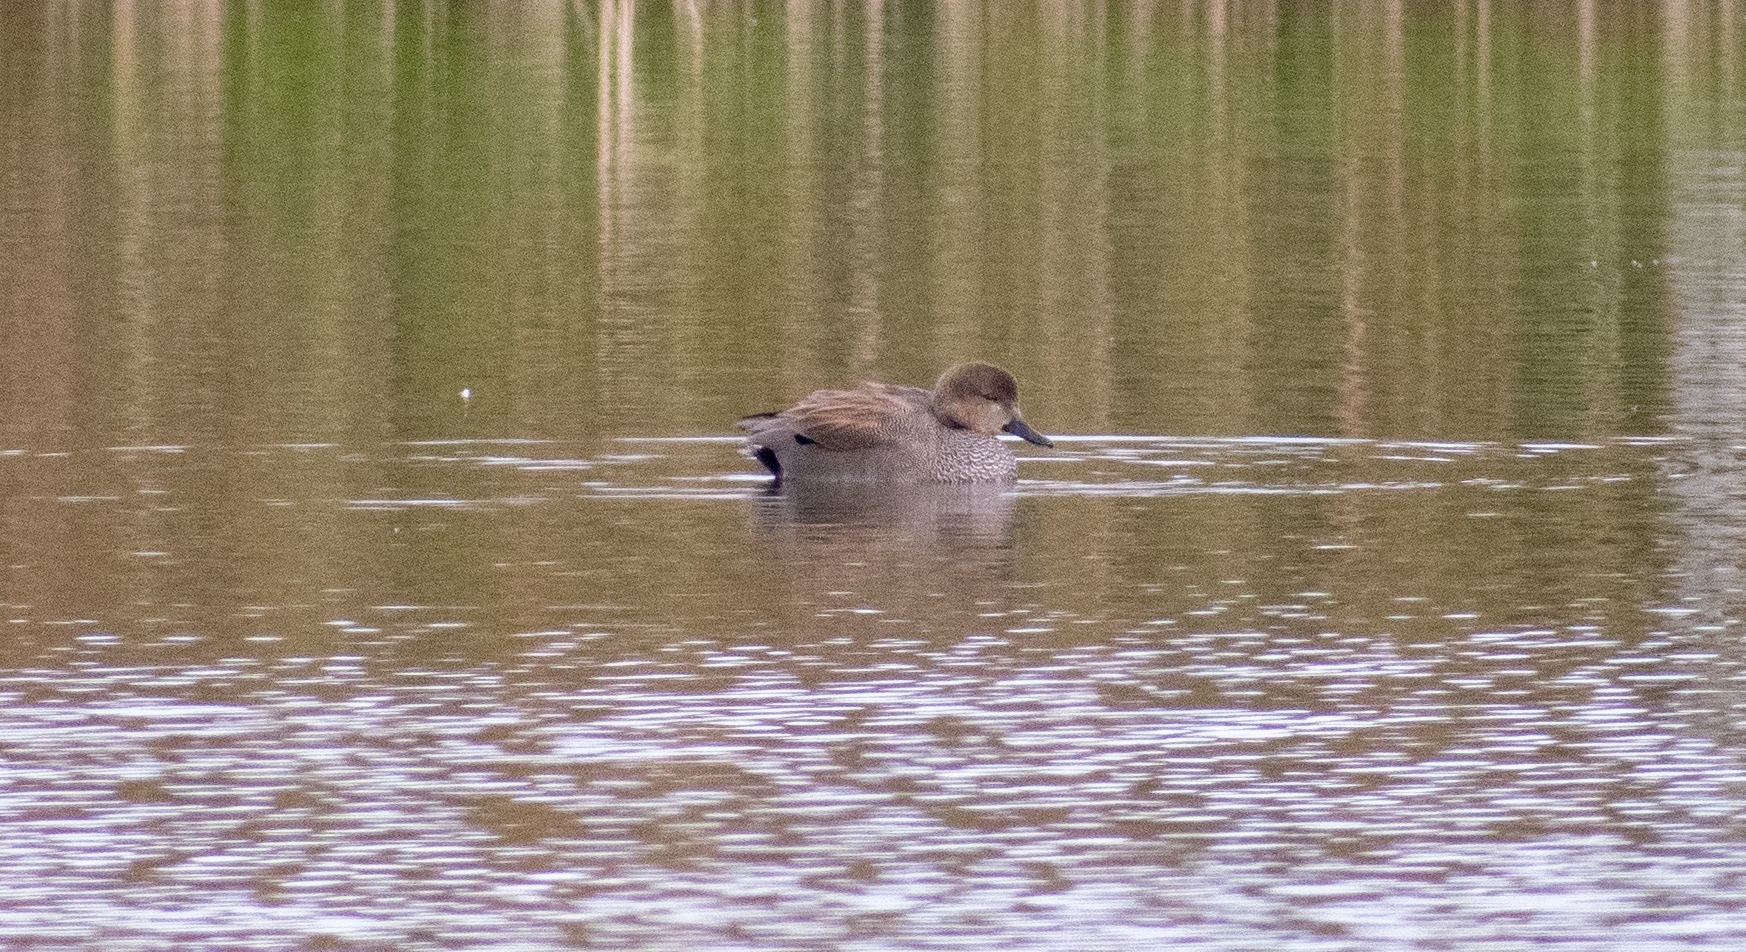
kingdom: Animalia
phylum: Chordata
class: Aves
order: Anseriformes
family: Anatidae
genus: Mareca
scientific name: Mareca strepera
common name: Gadwall
